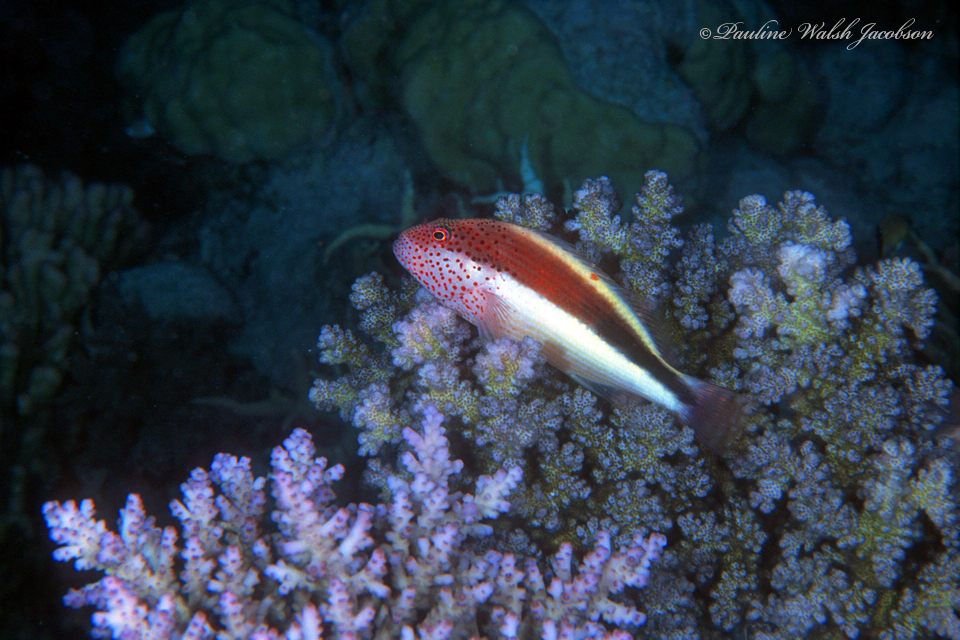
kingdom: Animalia
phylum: Chordata
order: Perciformes
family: Cirrhitidae
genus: Paracirrhites
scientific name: Paracirrhites forsteri
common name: Freckled hawkfish
